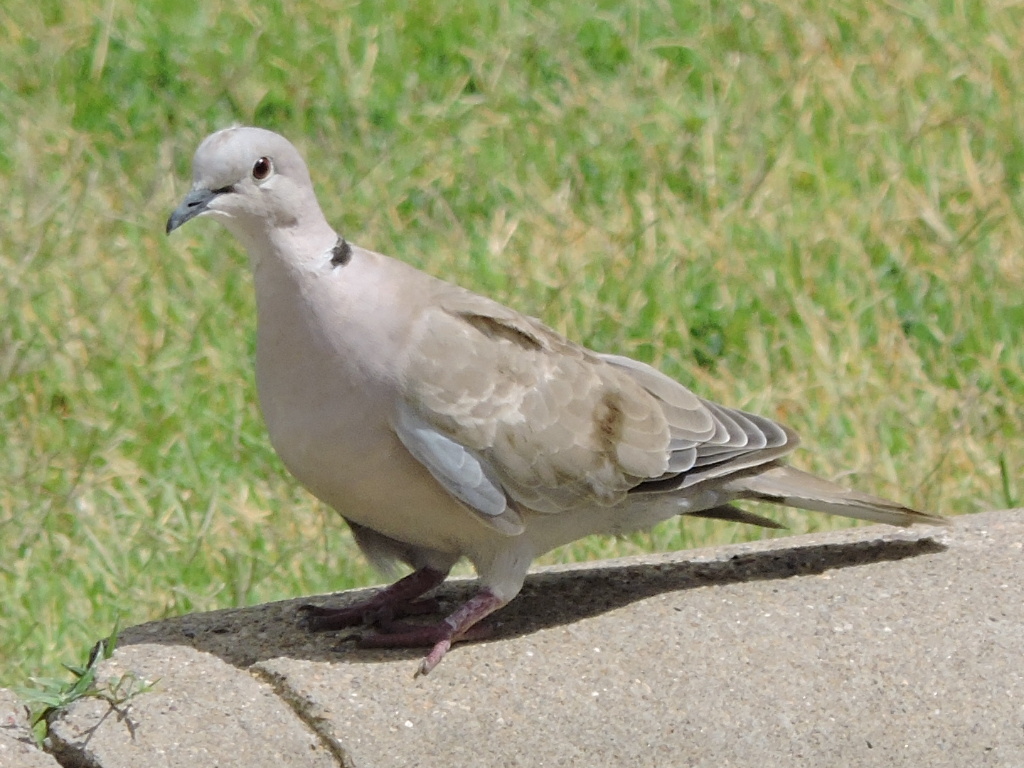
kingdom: Animalia
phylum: Chordata
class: Aves
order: Columbiformes
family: Columbidae
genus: Streptopelia
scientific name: Streptopelia decaocto
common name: Eurasian collared dove
